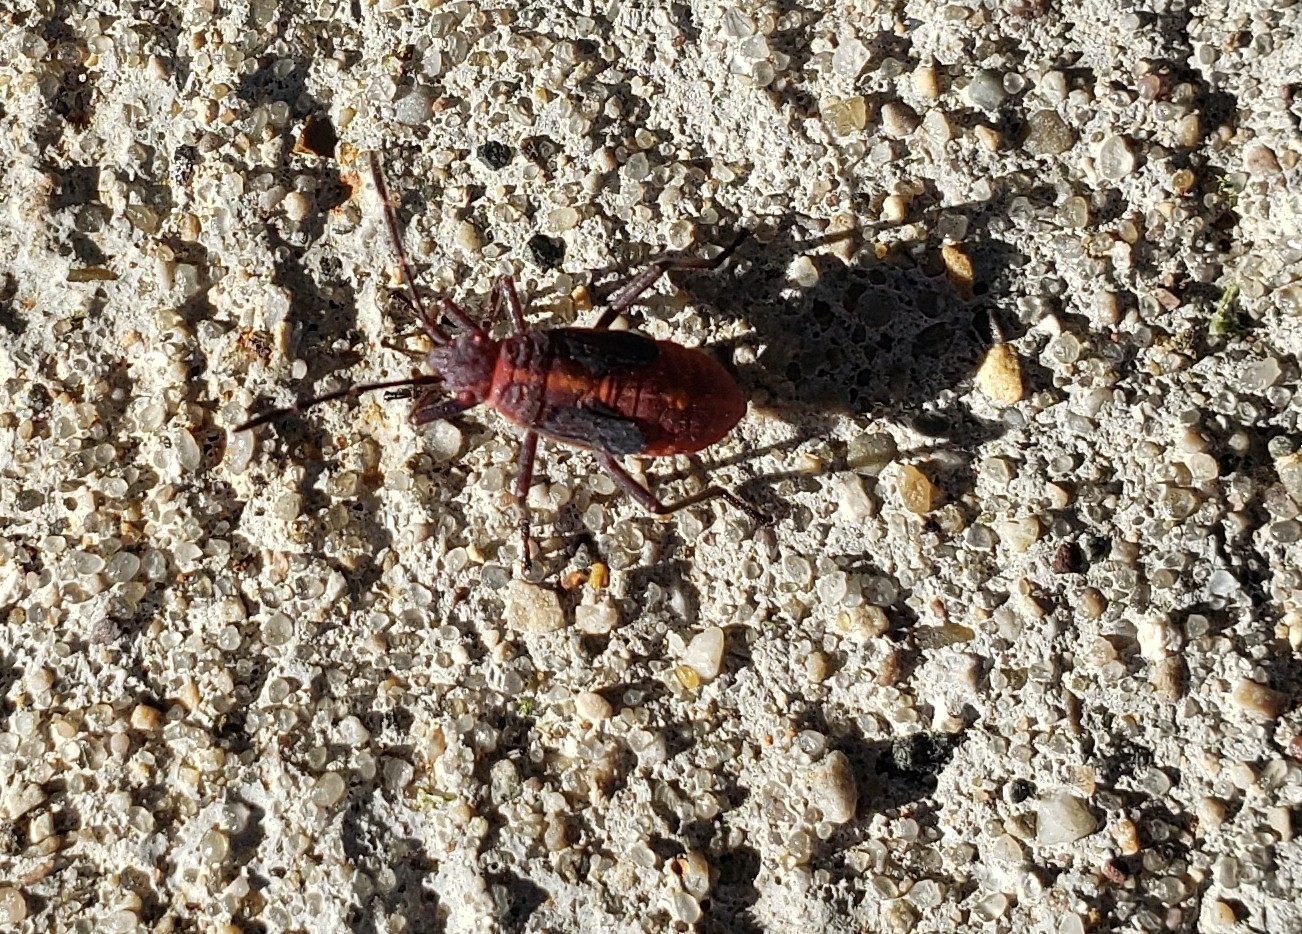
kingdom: Animalia
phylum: Arthropoda
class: Insecta
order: Hemiptera
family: Rhopalidae
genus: Boisea
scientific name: Boisea trivittata
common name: Boxelder bug
